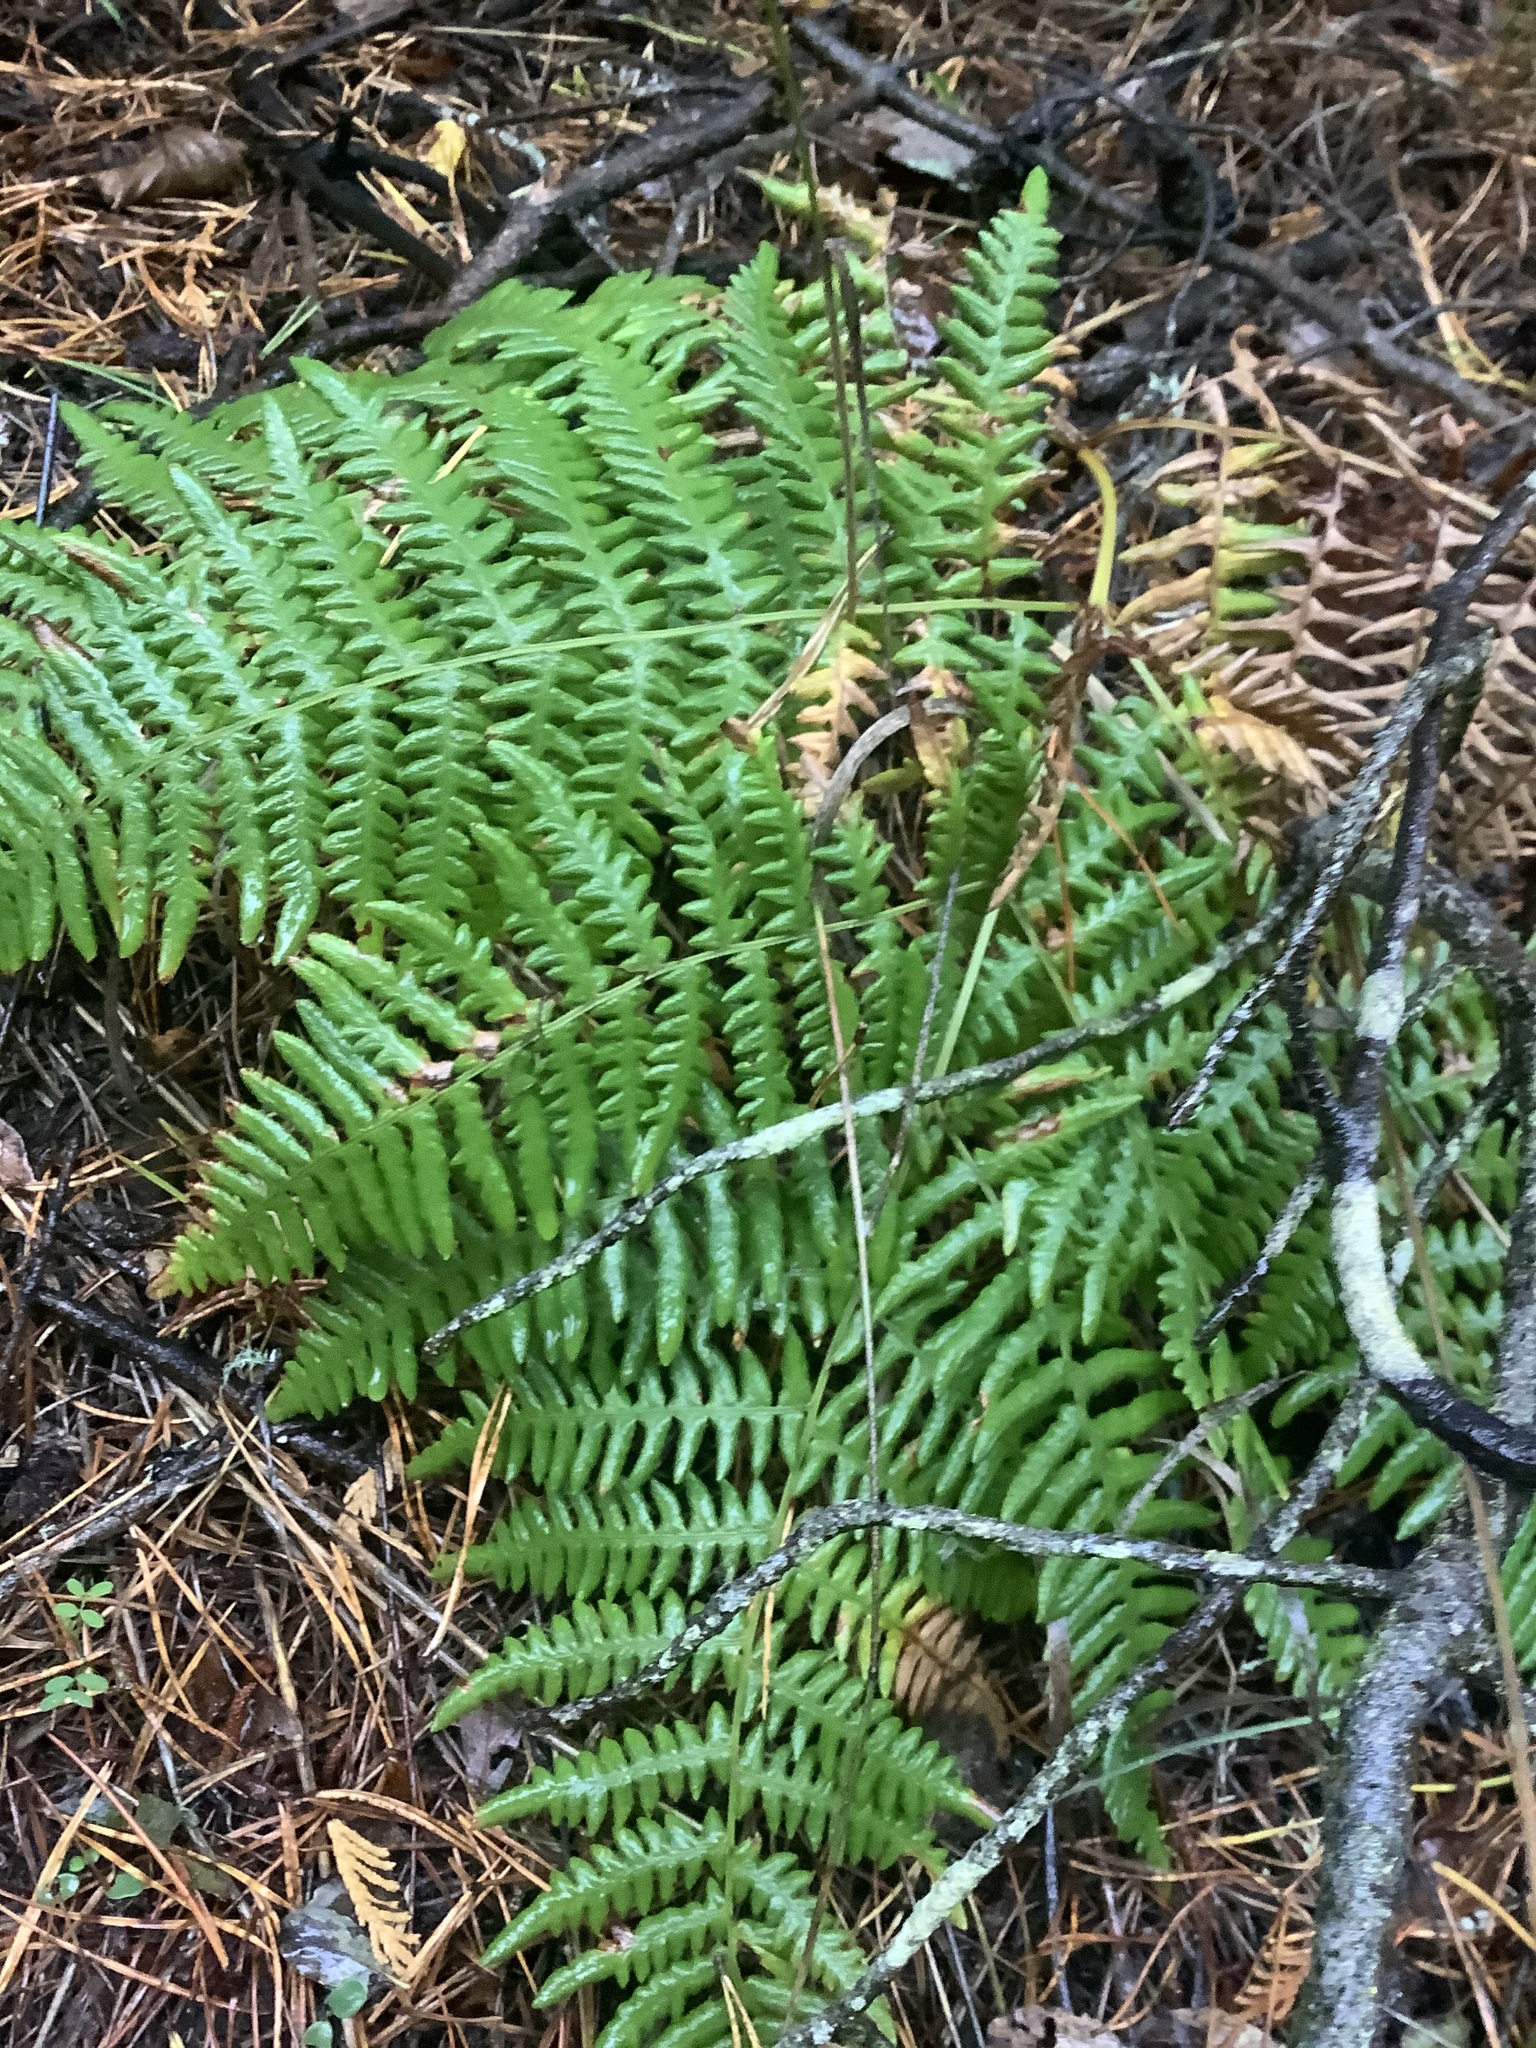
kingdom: Plantae
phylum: Tracheophyta
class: Polypodiopsida
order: Polypodiales
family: Dennstaedtiaceae
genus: Pteridium
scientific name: Pteridium aquilinum
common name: Bracken
